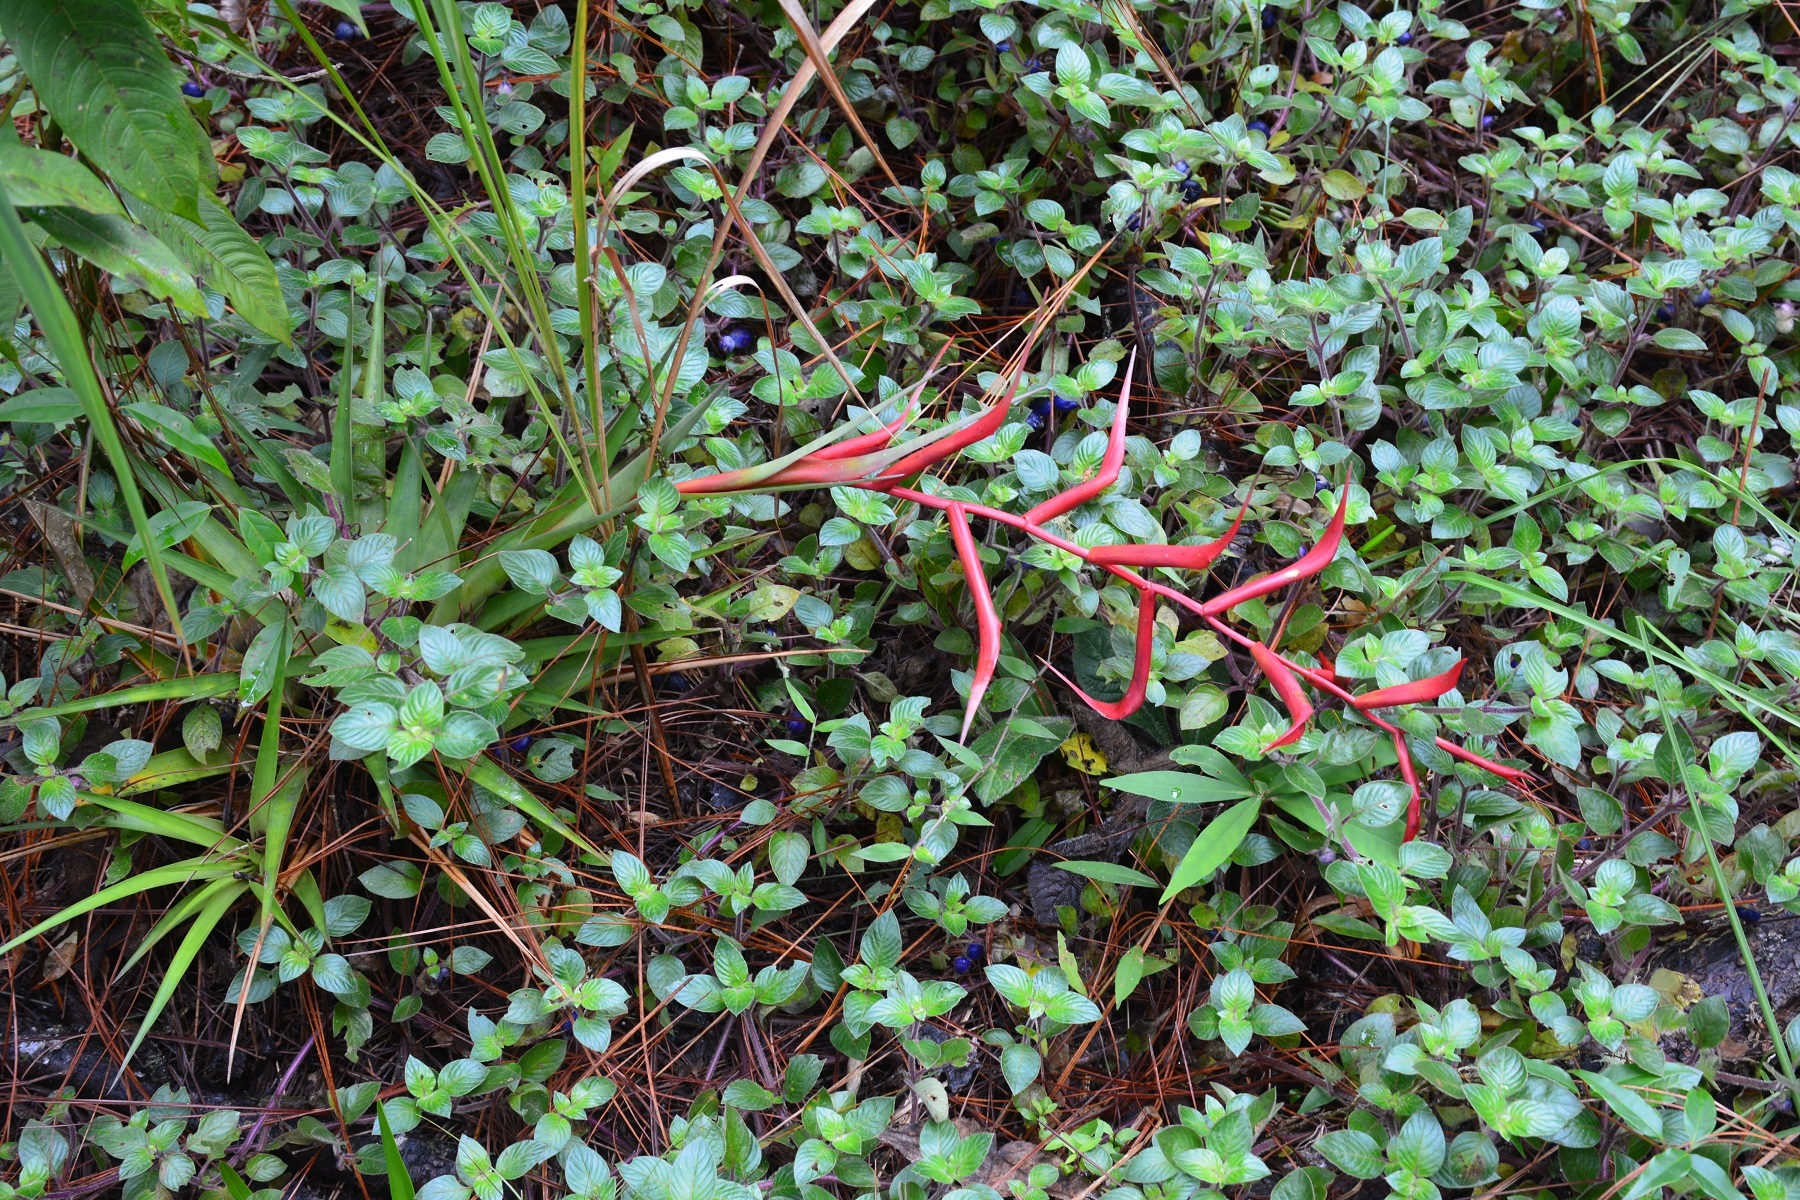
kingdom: Plantae
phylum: Tracheophyta
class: Liliopsida
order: Poales
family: Bromeliaceae
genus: Tillandsia
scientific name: Tillandsia standleyi
